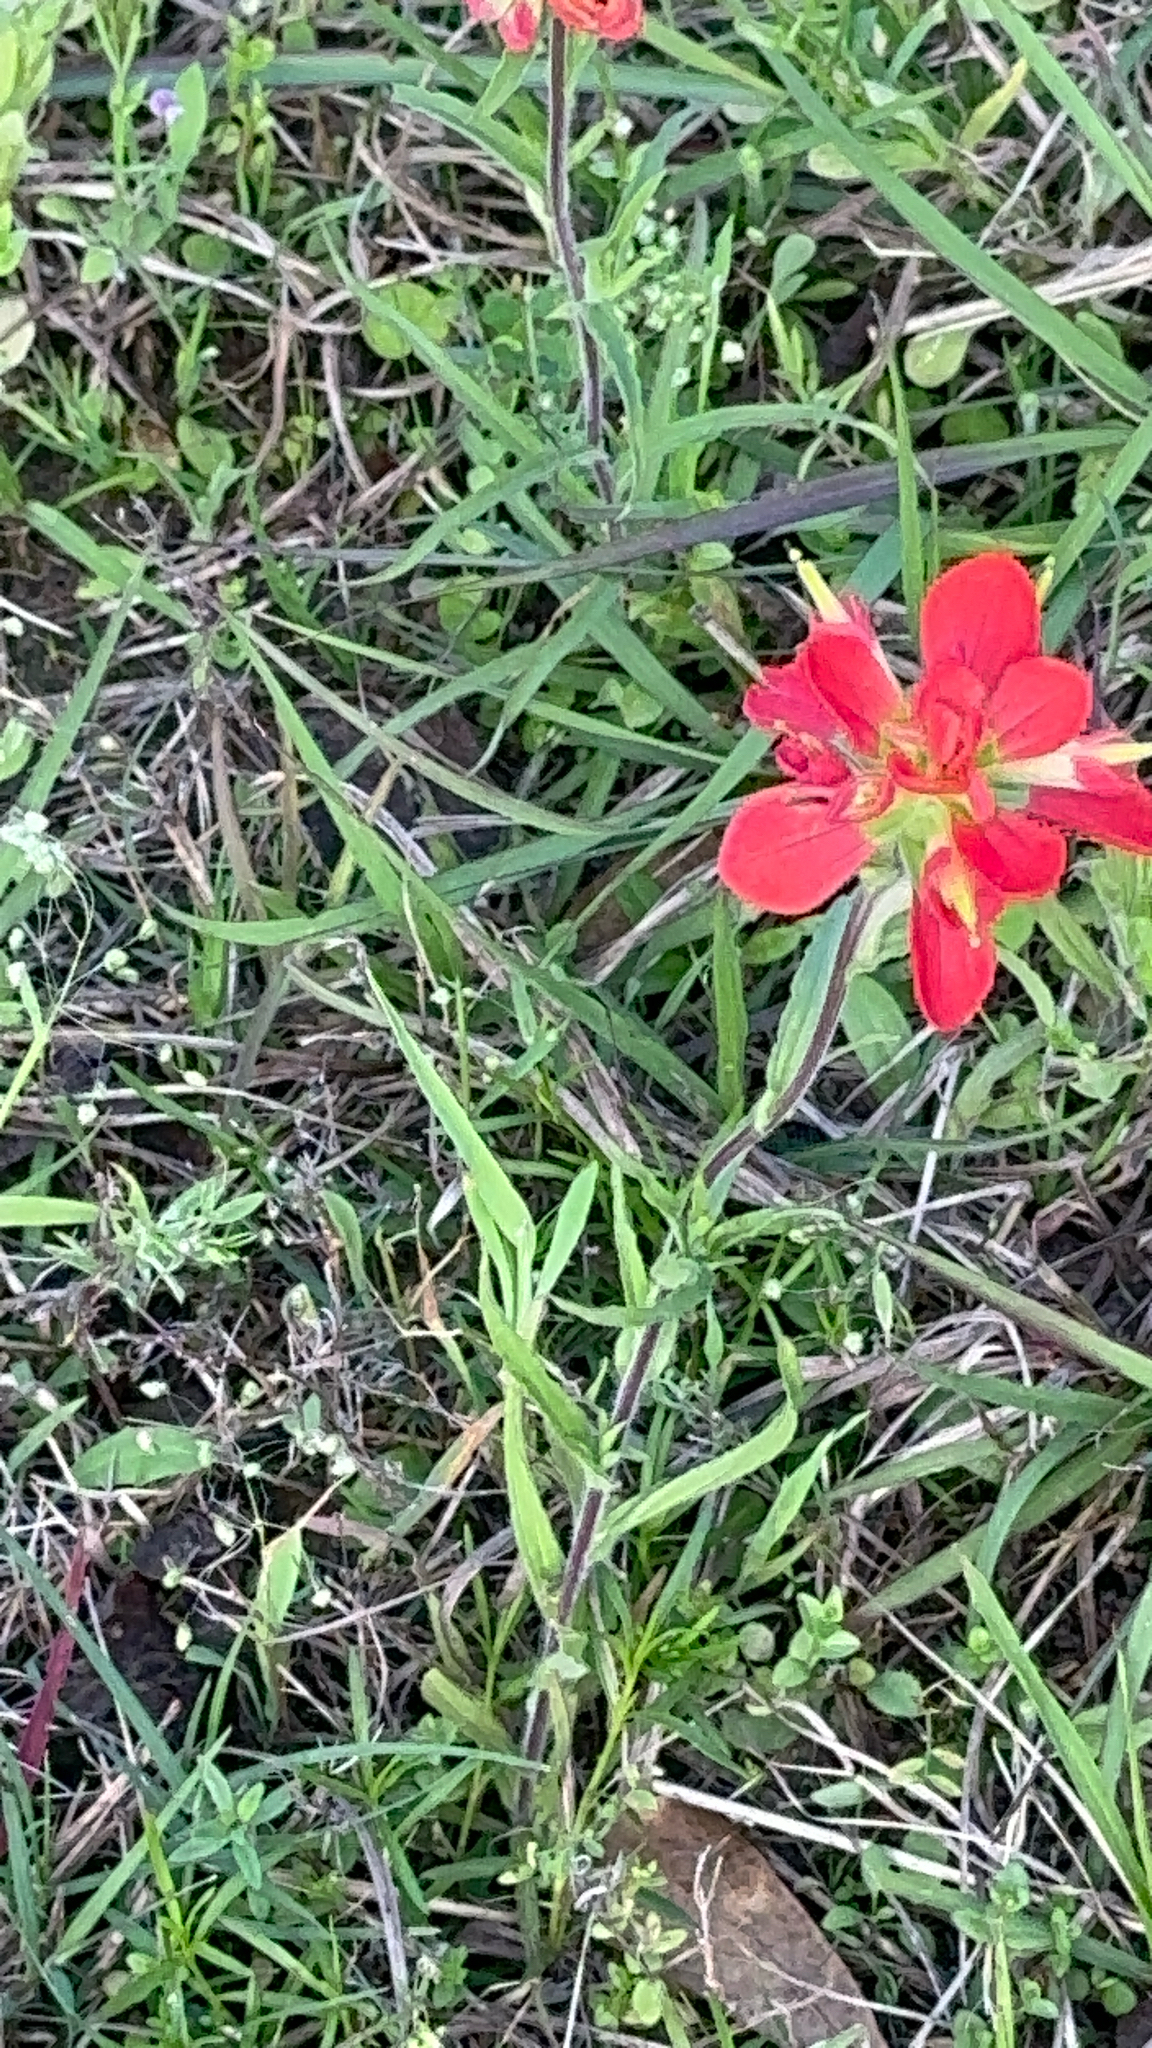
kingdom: Plantae
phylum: Tracheophyta
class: Magnoliopsida
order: Lamiales
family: Orobanchaceae
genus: Castilleja
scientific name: Castilleja indivisa
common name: Texas paintbrush
